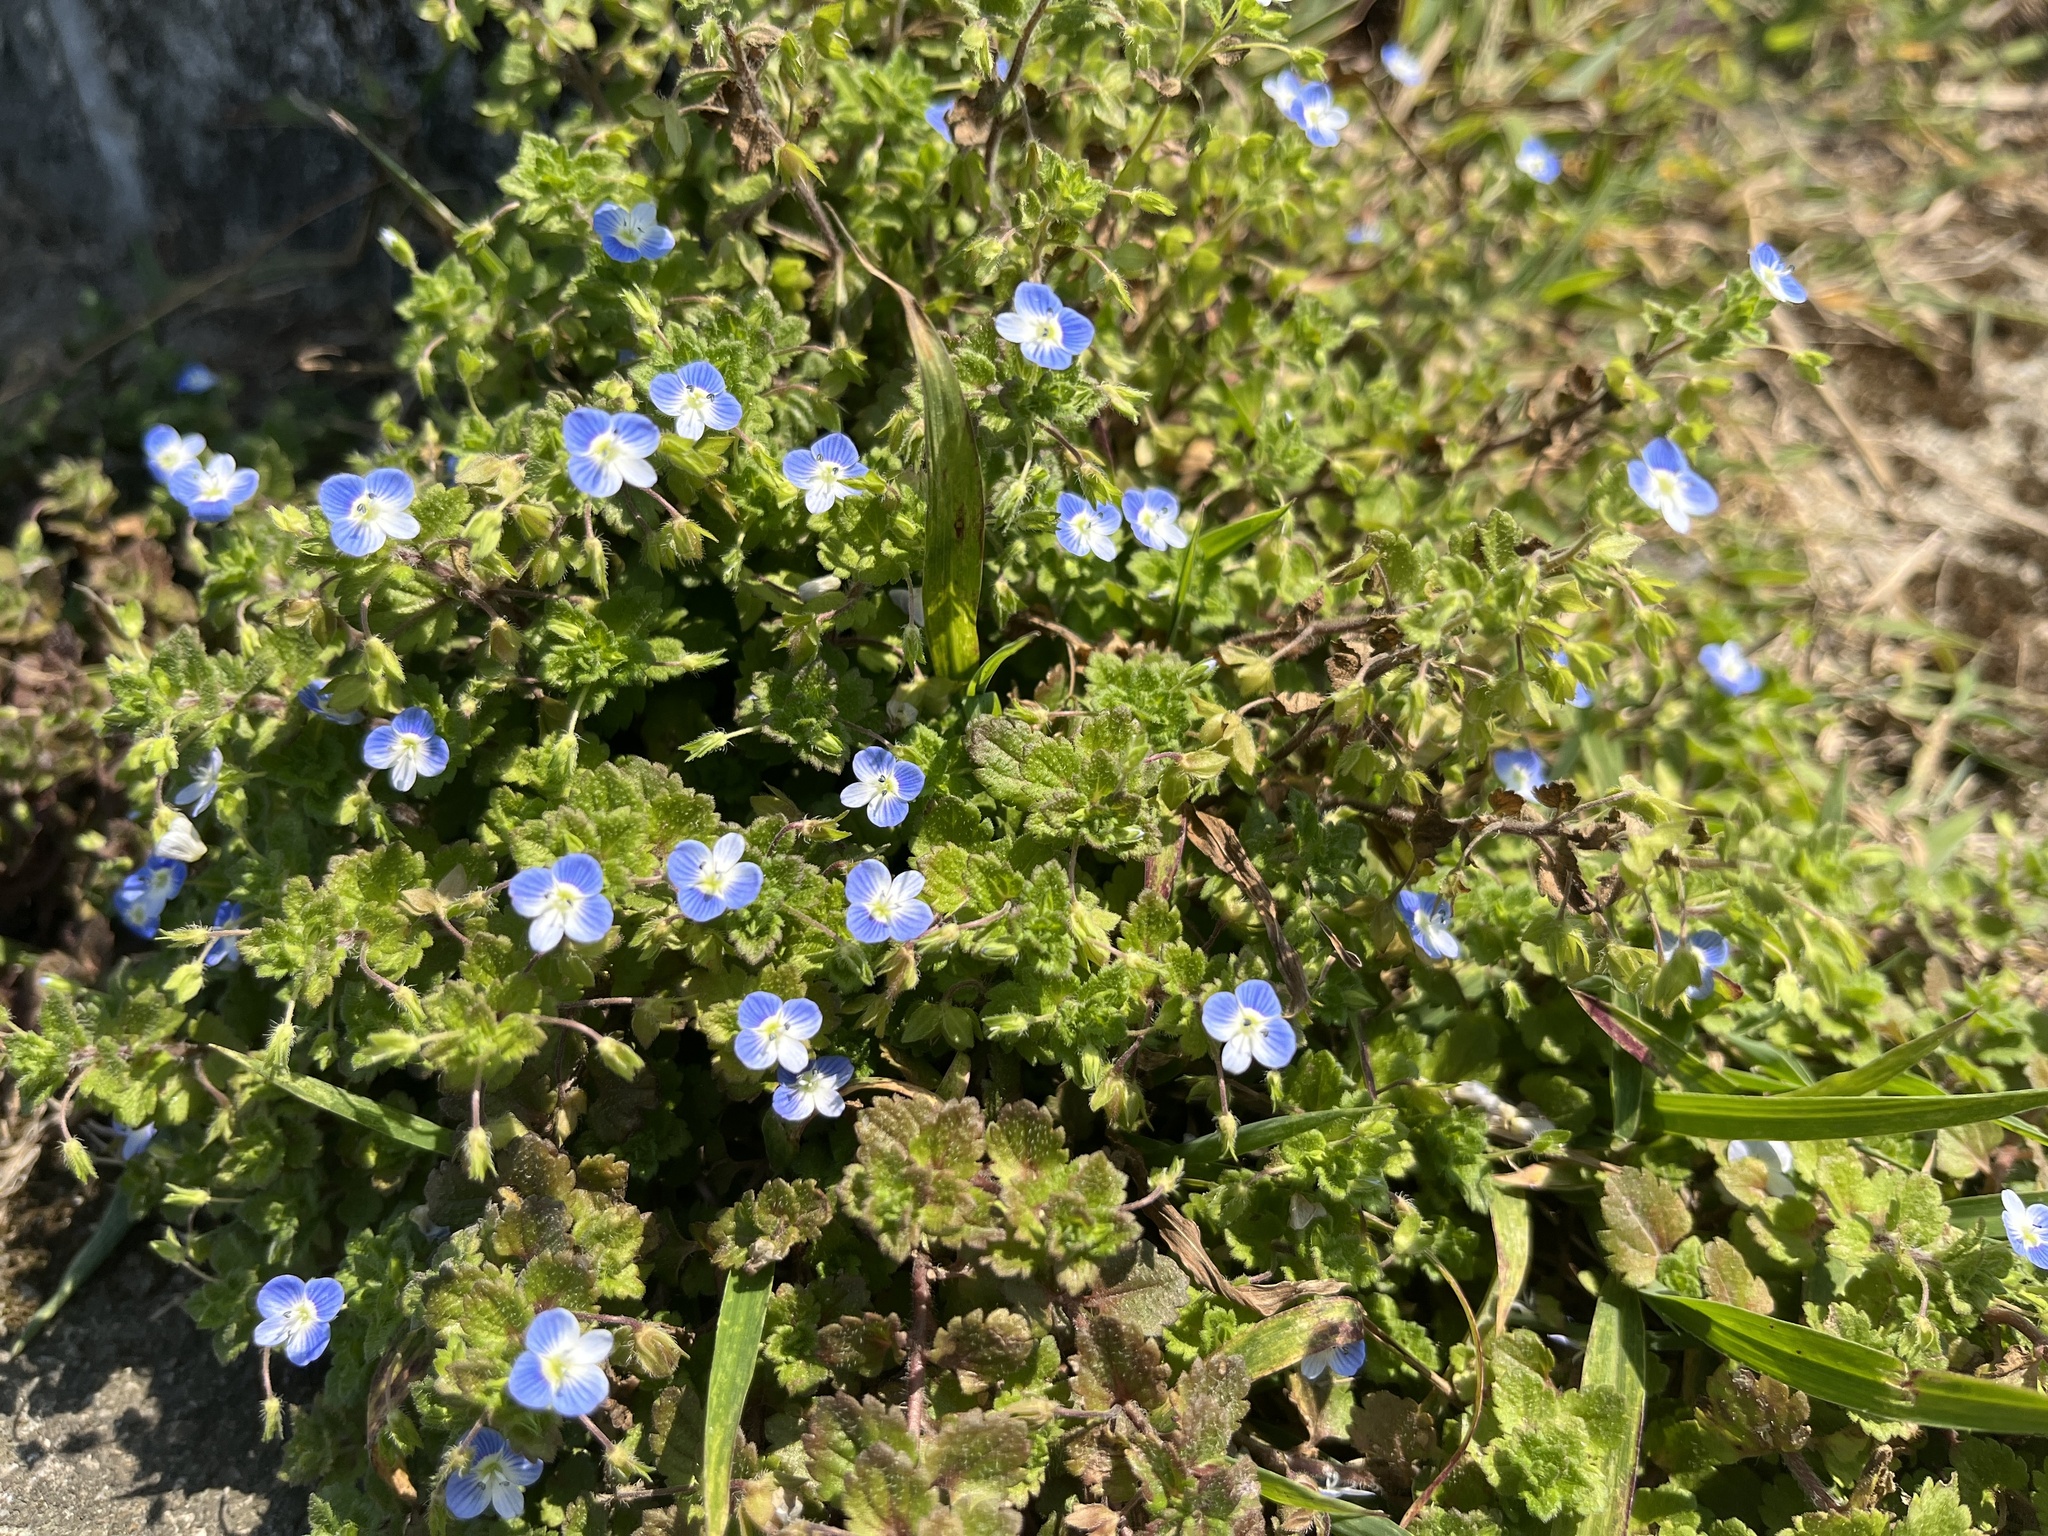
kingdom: Plantae
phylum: Tracheophyta
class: Magnoliopsida
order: Lamiales
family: Plantaginaceae
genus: Veronica
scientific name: Veronica persica
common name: Common field-speedwell
